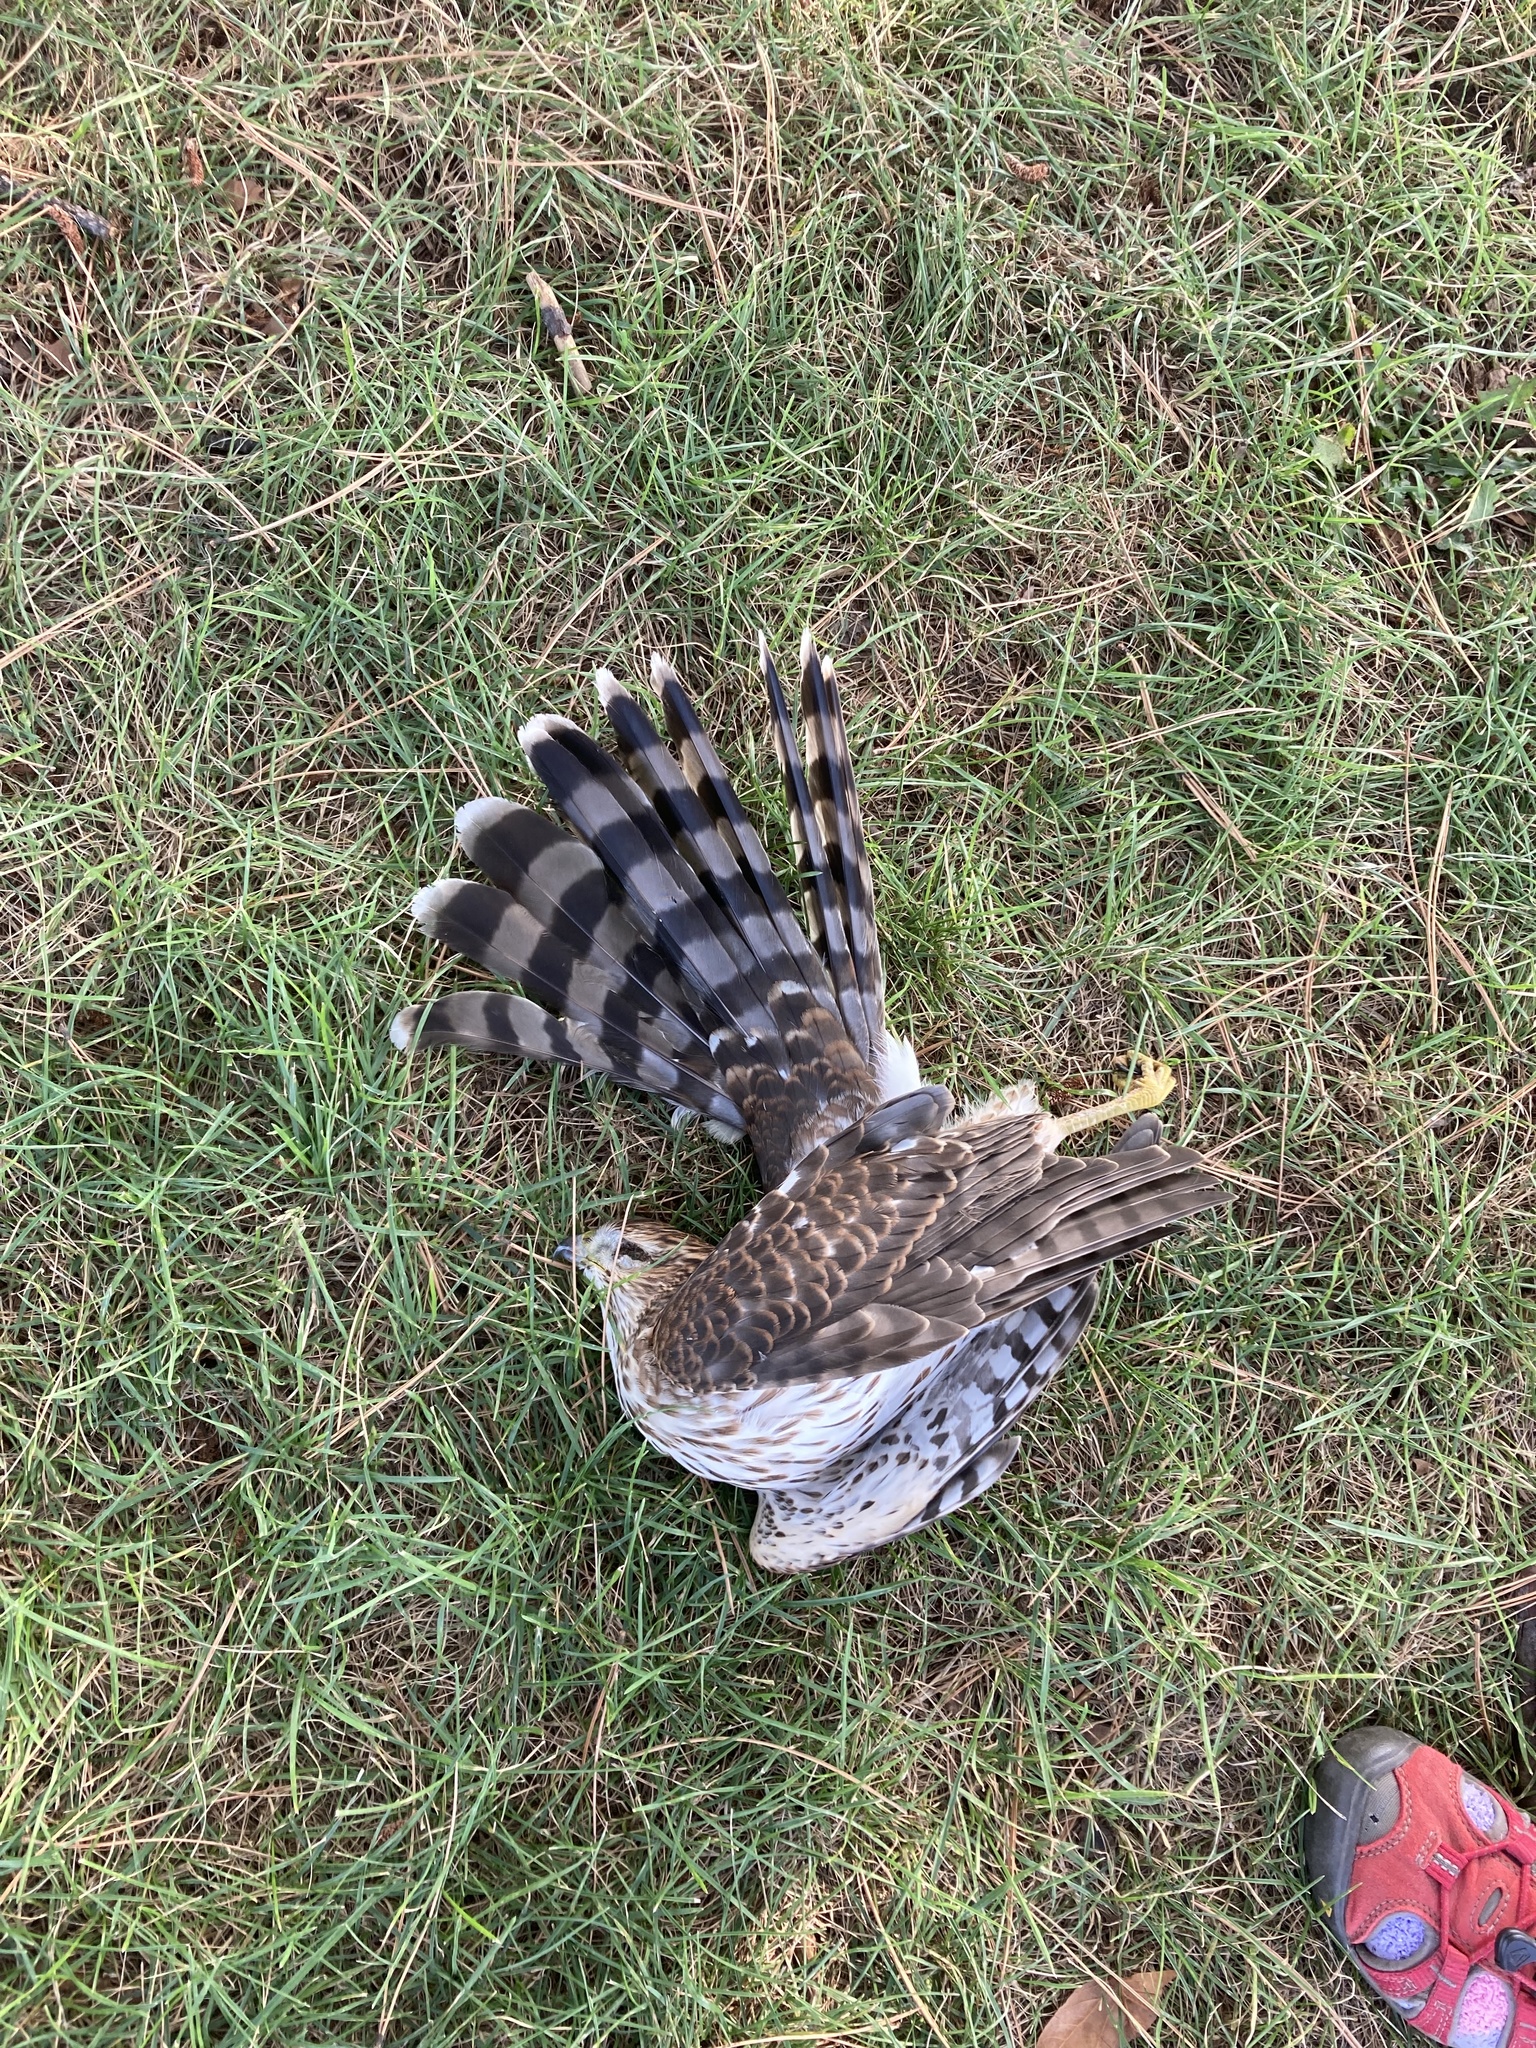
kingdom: Animalia
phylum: Chordata
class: Aves
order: Accipitriformes
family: Accipitridae
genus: Accipiter
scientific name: Accipiter cooperii
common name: Cooper's hawk
